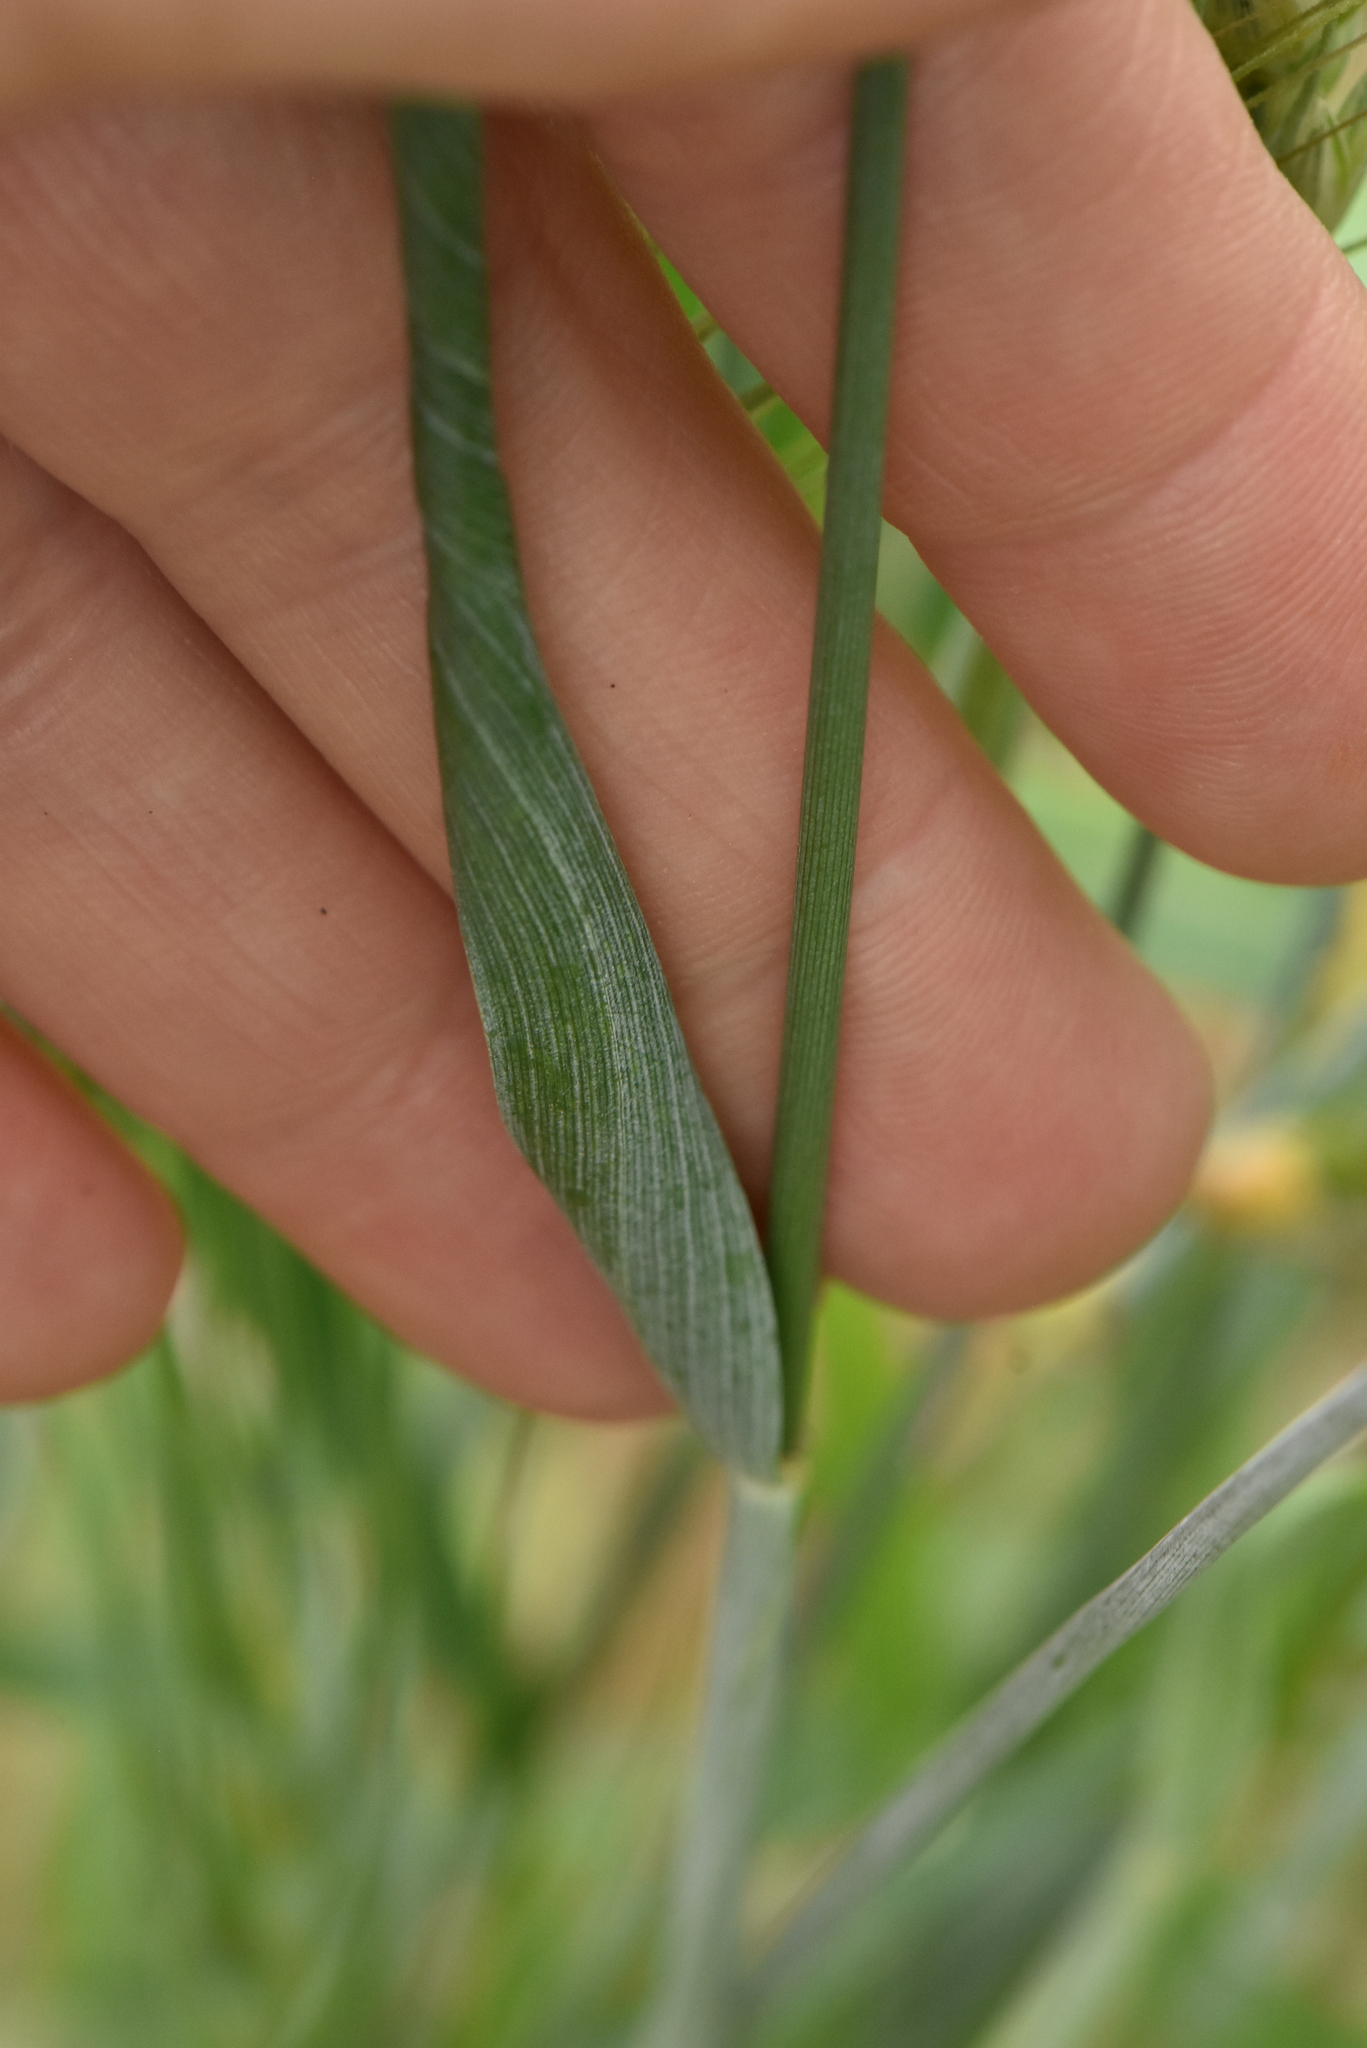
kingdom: Plantae
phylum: Tracheophyta
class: Liliopsida
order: Poales
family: Poaceae
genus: Triticum
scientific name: Triticum aestivum
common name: Common wheat
